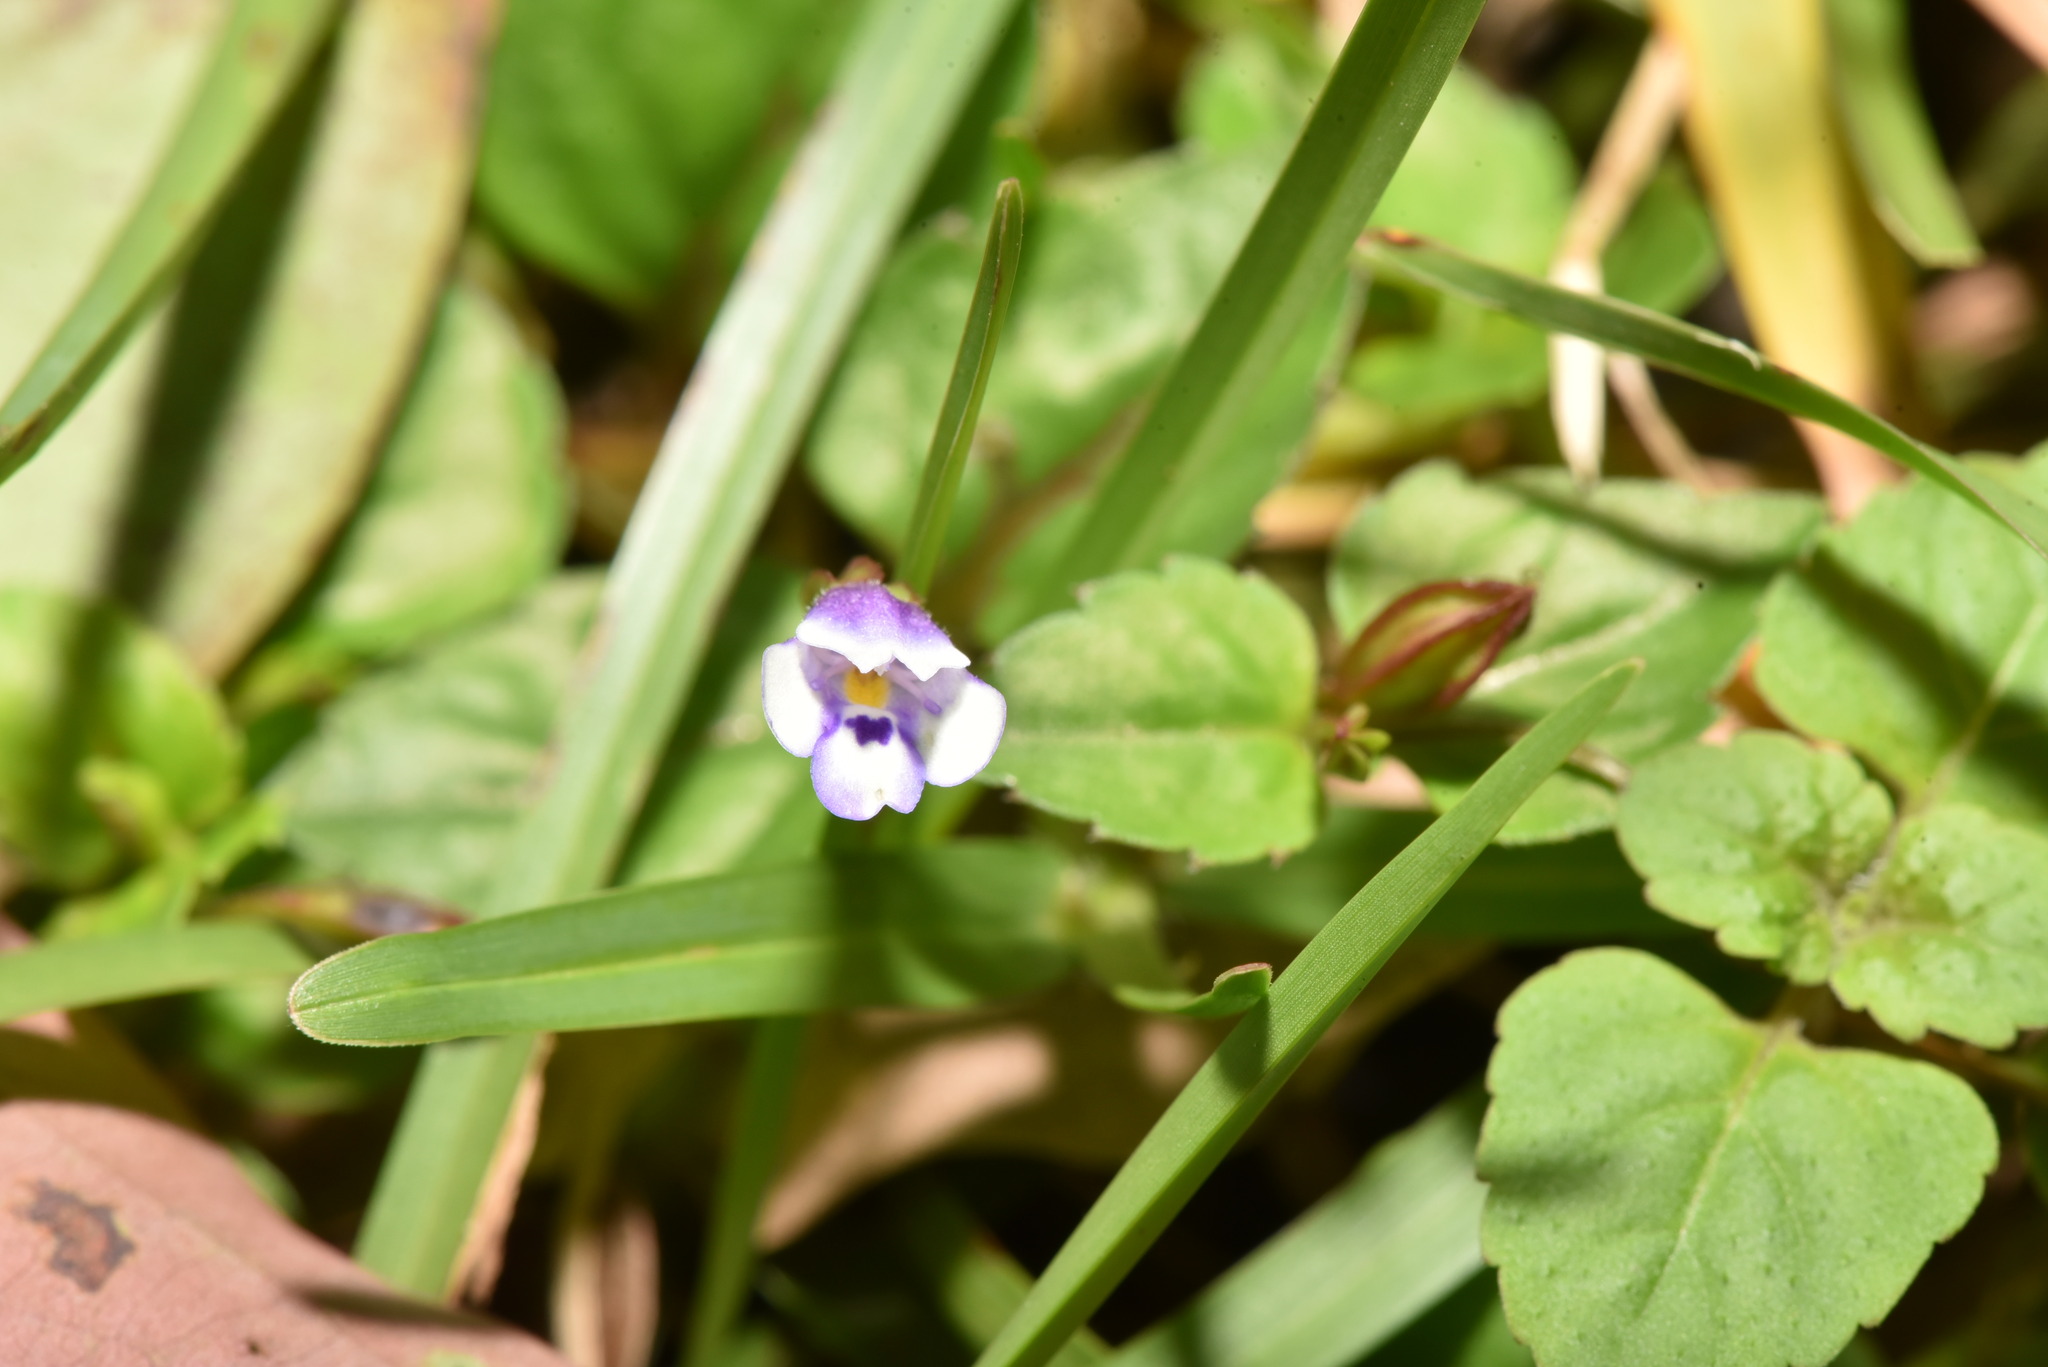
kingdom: Plantae
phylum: Tracheophyta
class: Magnoliopsida
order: Lamiales
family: Linderniaceae
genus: Torenia
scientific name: Torenia crustacea
